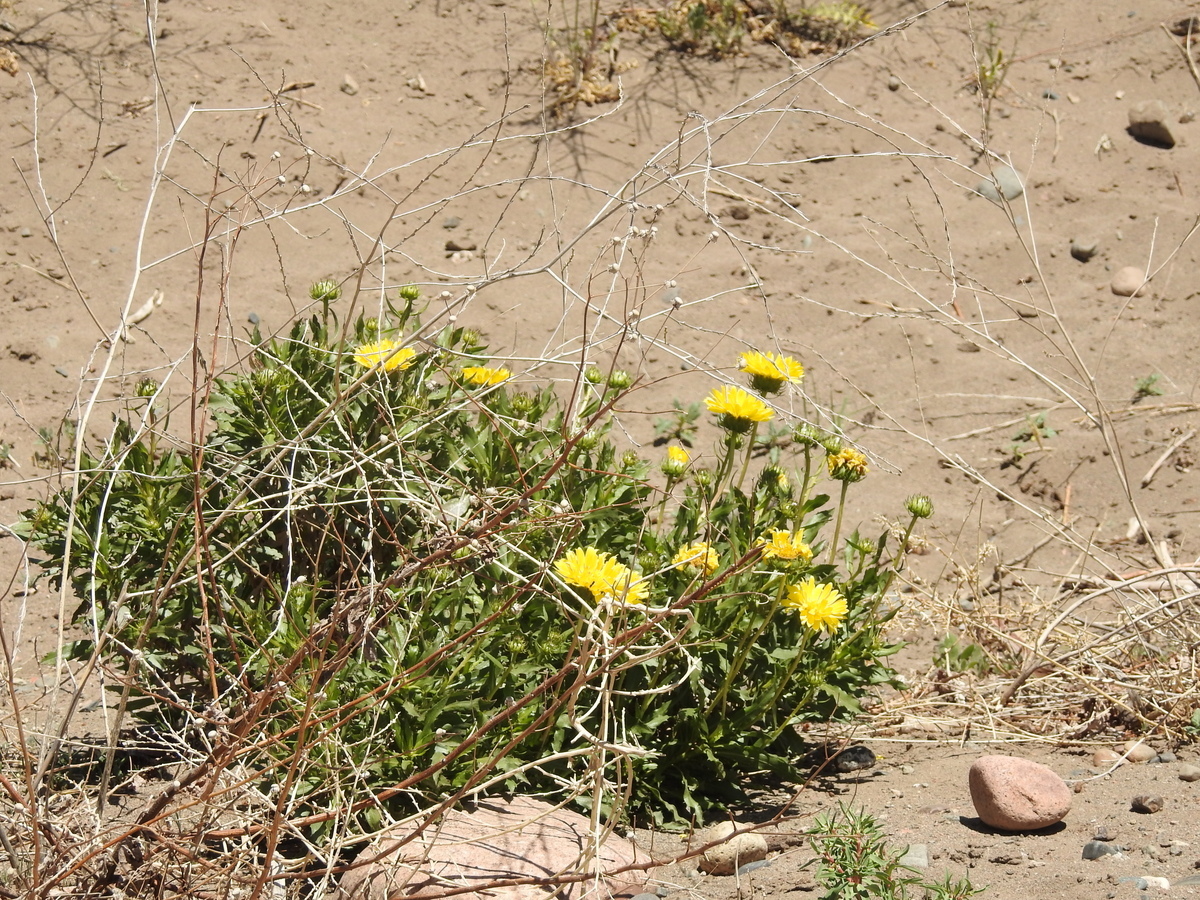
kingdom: Plantae
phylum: Tracheophyta
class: Magnoliopsida
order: Asterales
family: Asteraceae
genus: Grindelia
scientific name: Grindelia chiloensis
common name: Shrubby gumweed
